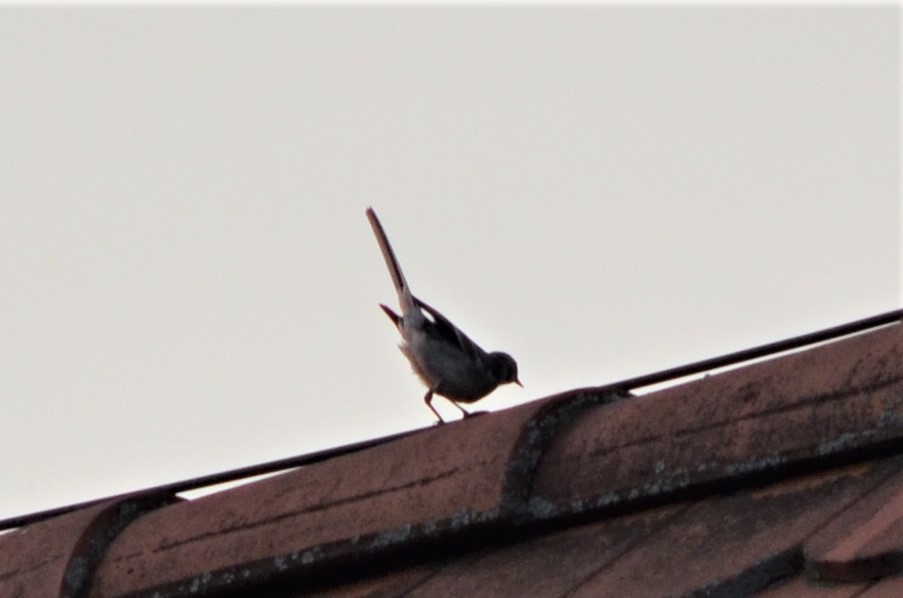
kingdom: Animalia
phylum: Chordata
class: Aves
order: Passeriformes
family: Motacillidae
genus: Motacilla
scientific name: Motacilla alba
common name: White wagtail
